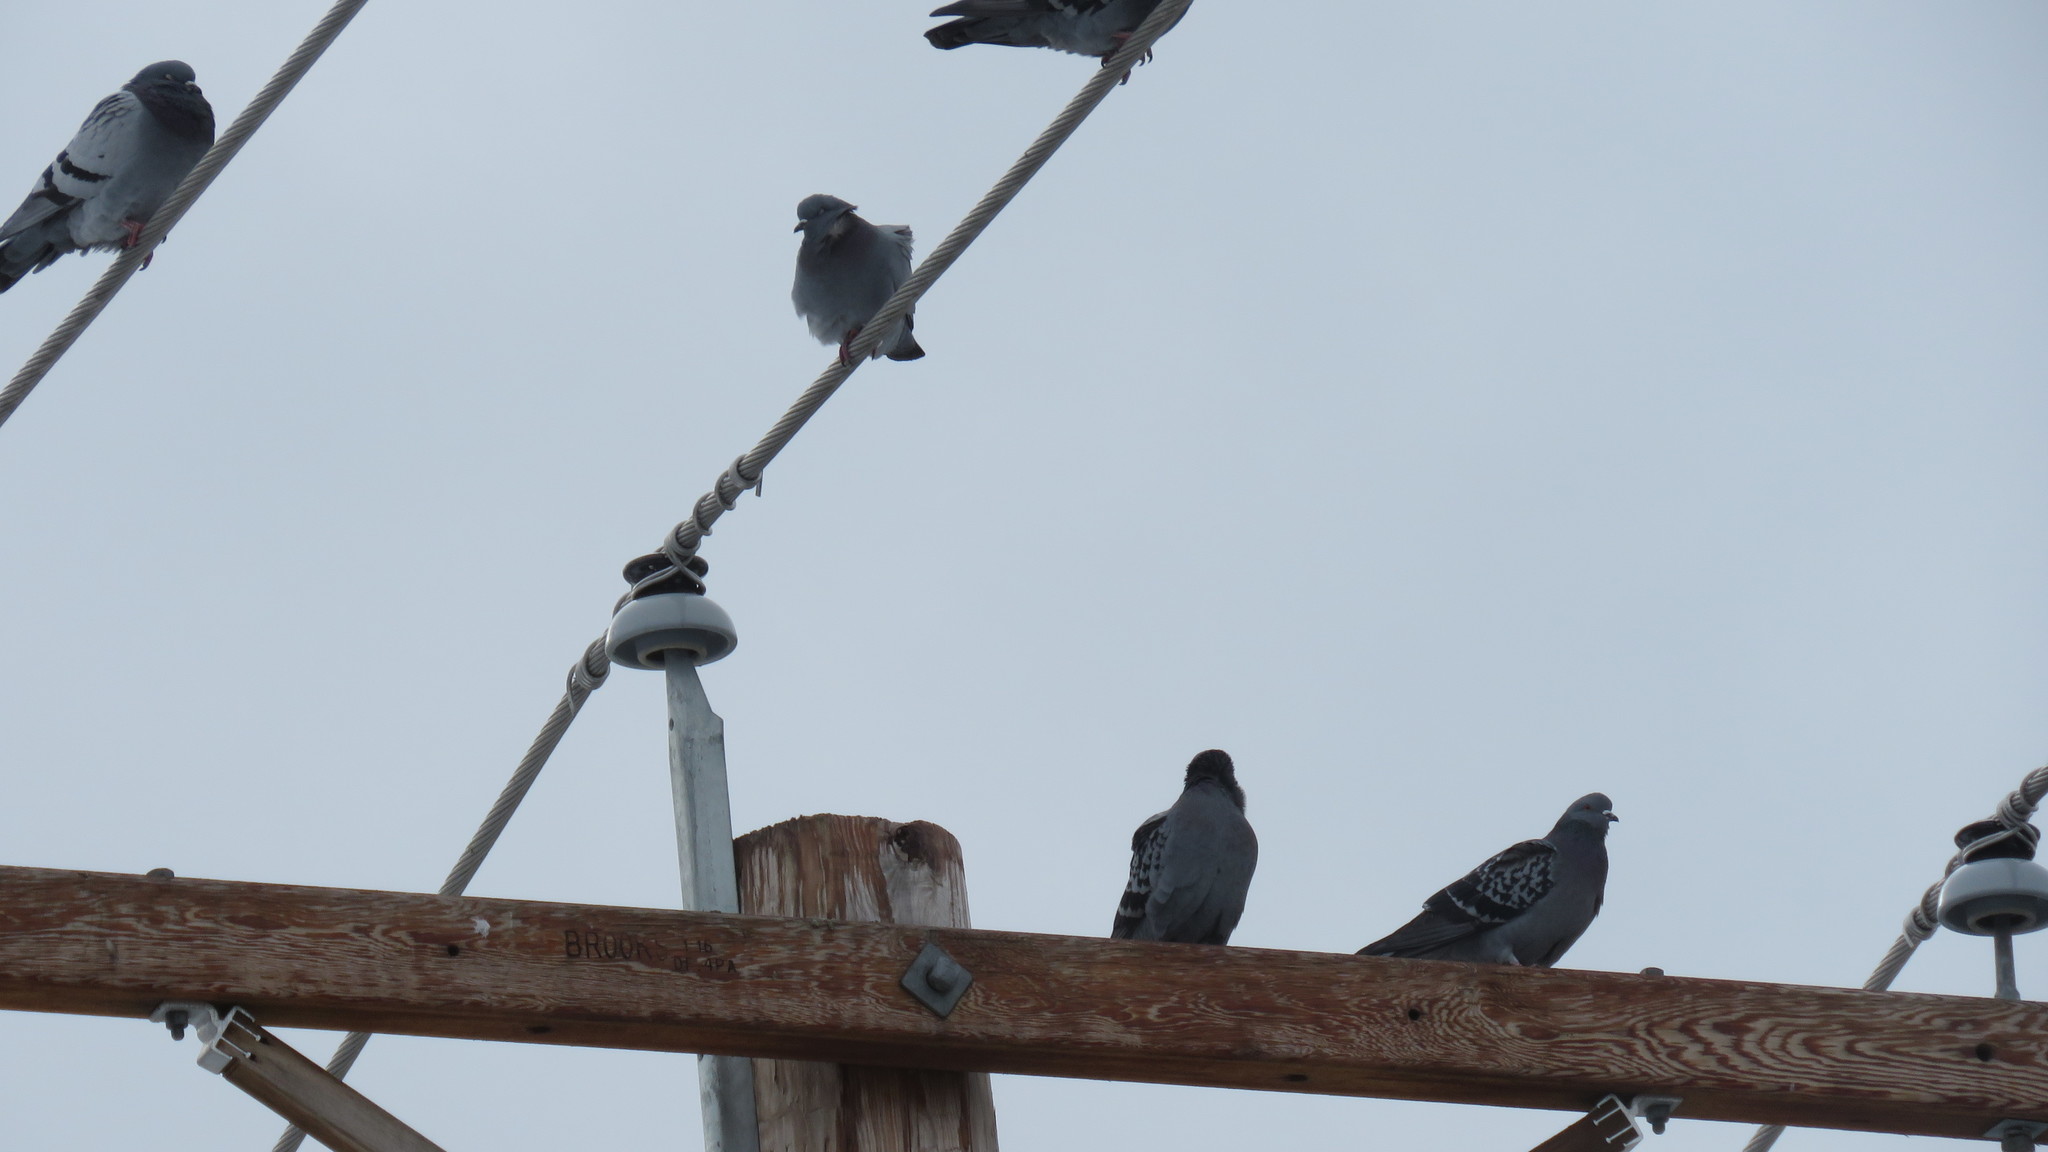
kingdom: Animalia
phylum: Chordata
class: Aves
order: Columbiformes
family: Columbidae
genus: Columba
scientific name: Columba livia
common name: Rock pigeon
